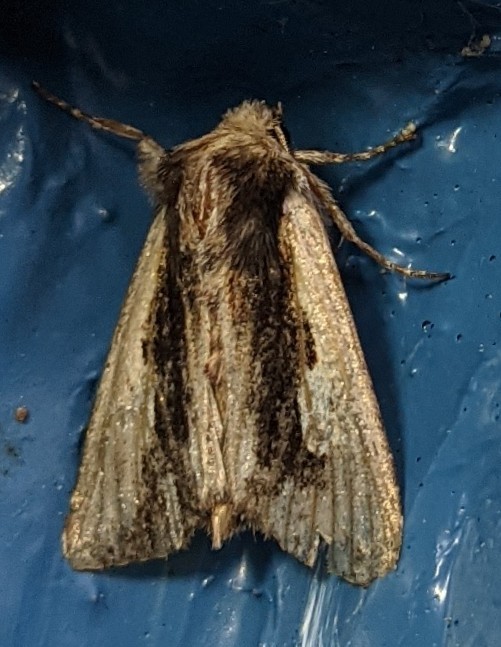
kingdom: Animalia
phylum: Arthropoda
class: Insecta
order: Lepidoptera
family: Noctuidae
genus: Achatia
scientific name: Achatia evicta
